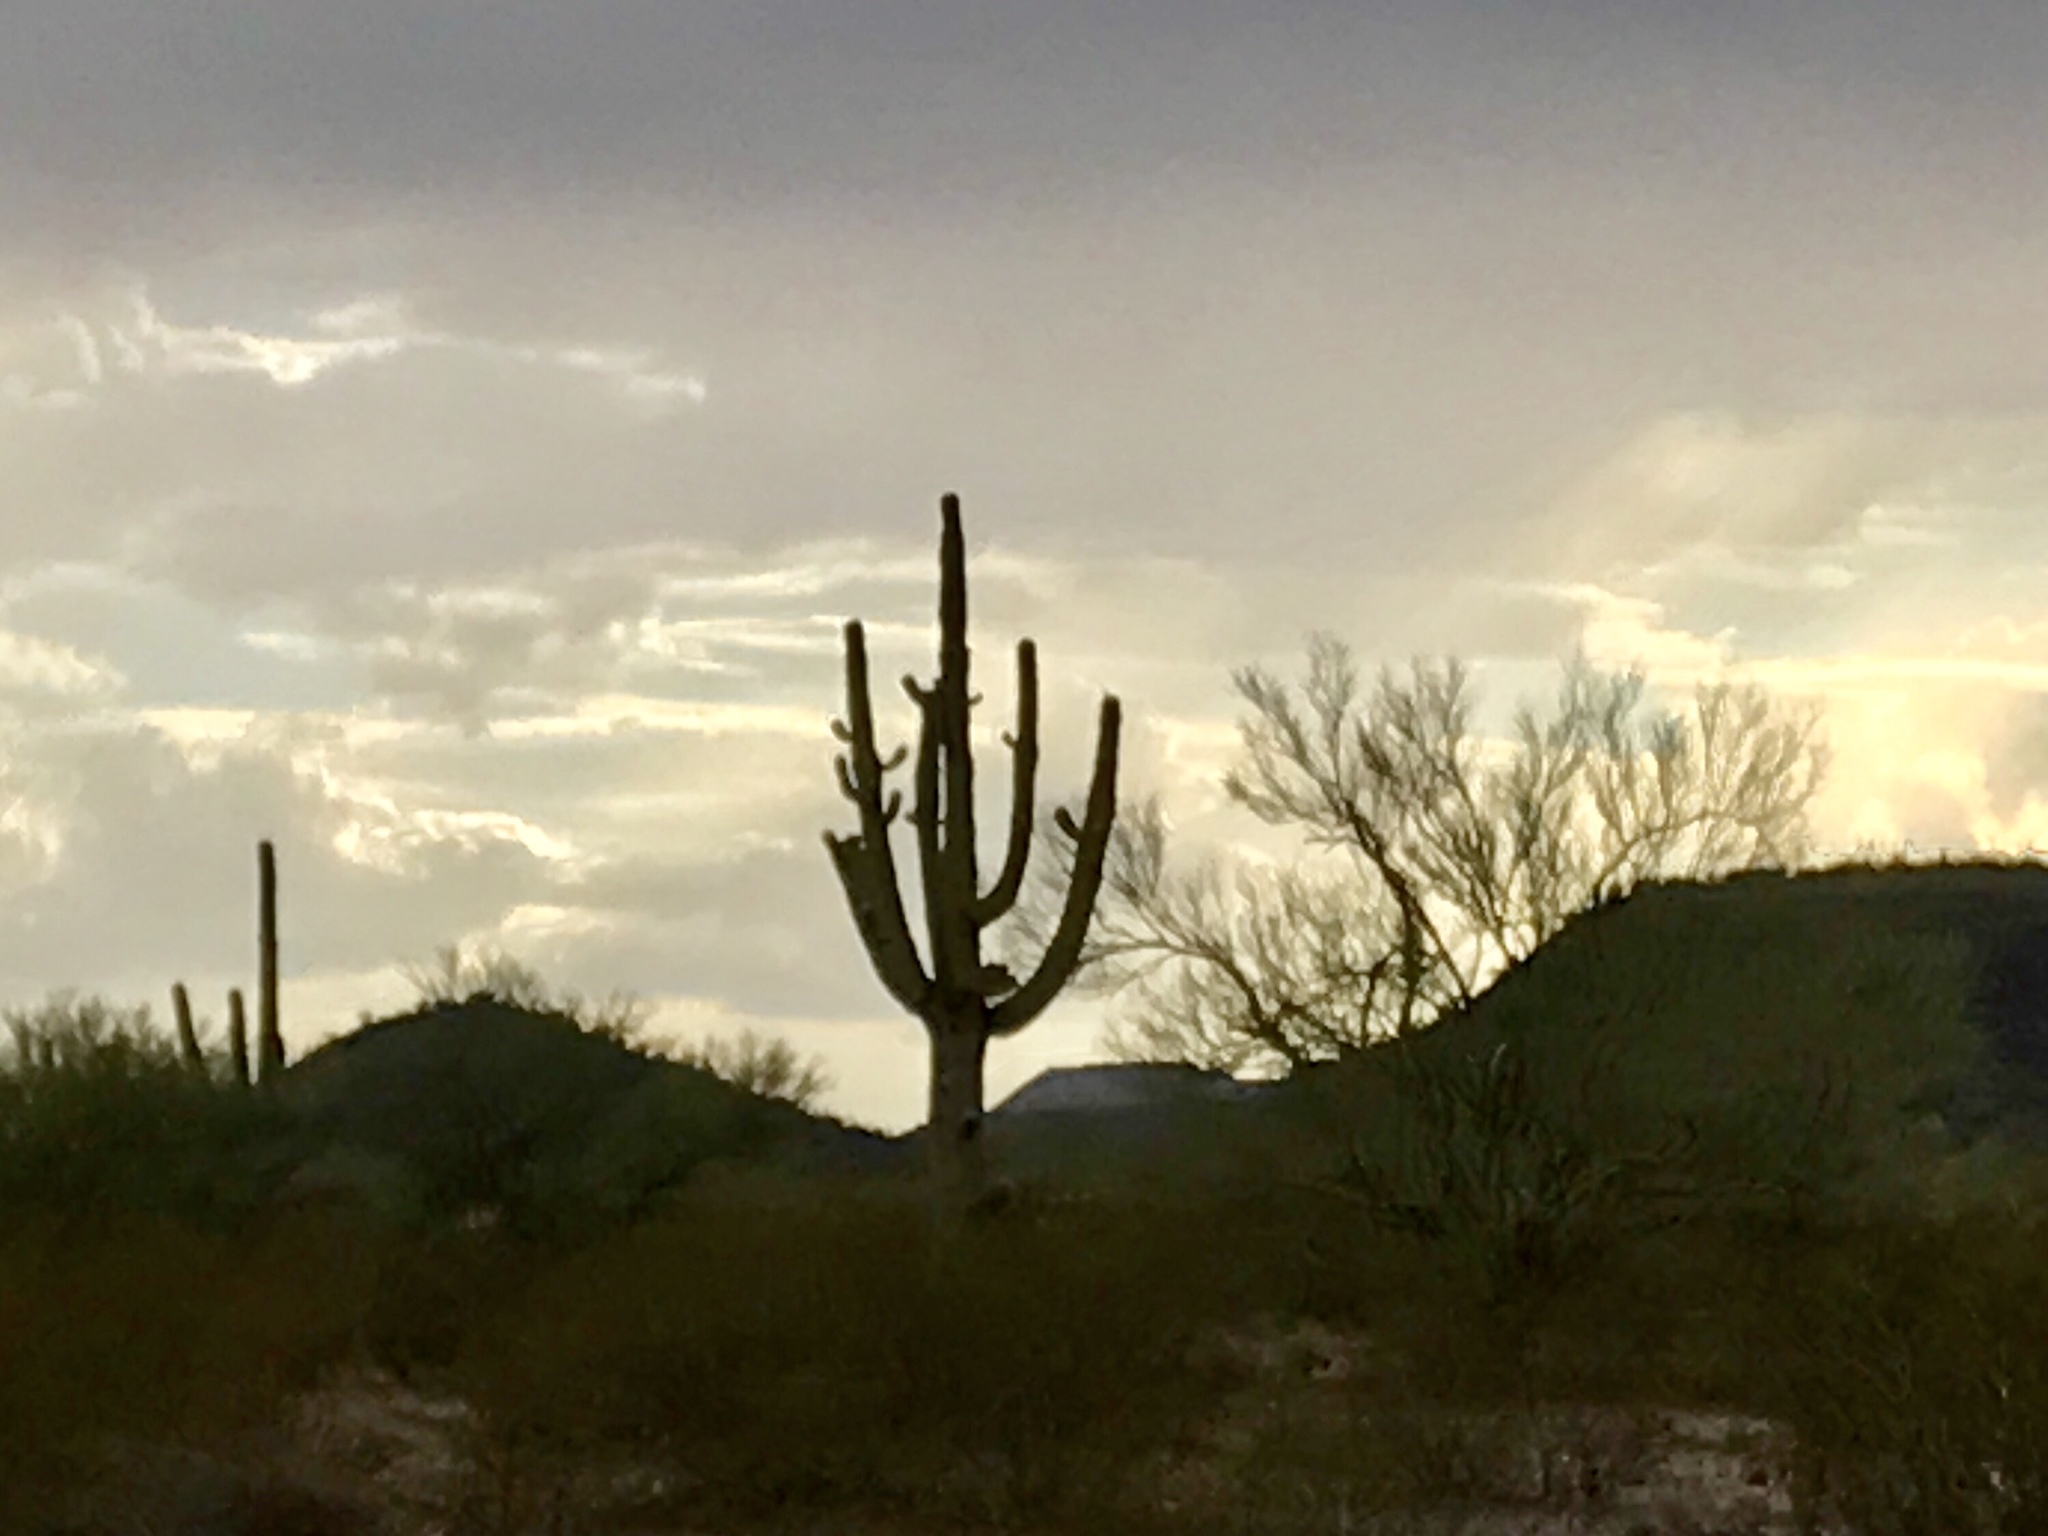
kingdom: Plantae
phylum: Tracheophyta
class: Magnoliopsida
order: Caryophyllales
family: Cactaceae
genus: Carnegiea
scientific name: Carnegiea gigantea
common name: Saguaro
